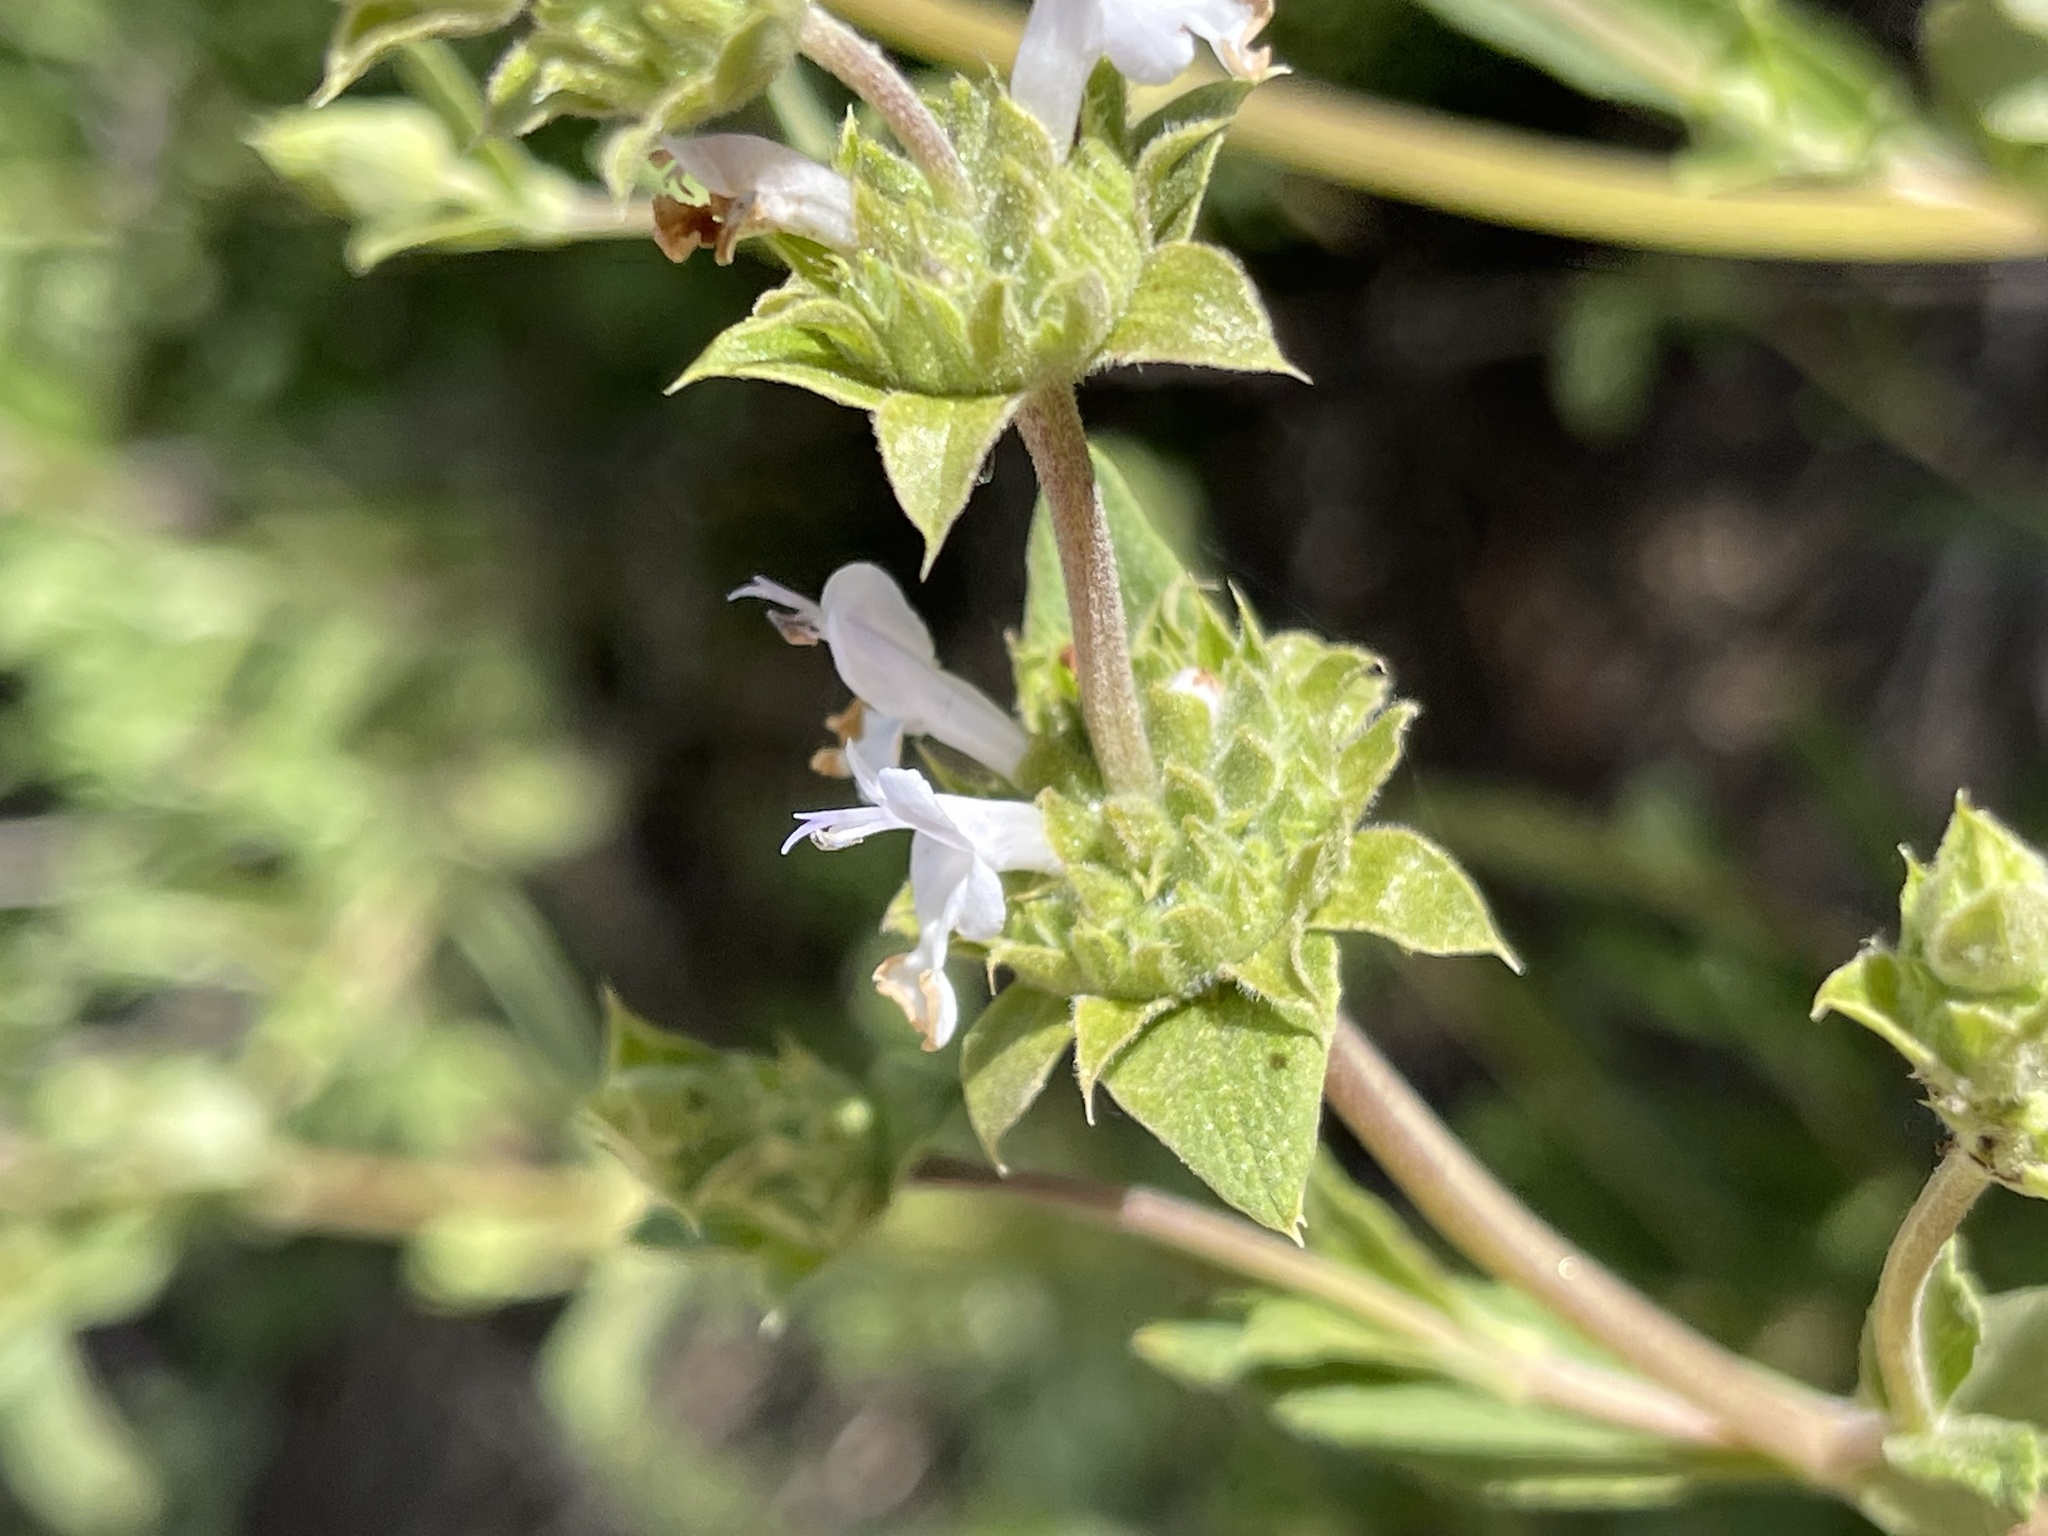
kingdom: Plantae
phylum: Tracheophyta
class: Magnoliopsida
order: Lamiales
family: Lamiaceae
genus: Salvia
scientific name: Salvia mellifera
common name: Black sage
